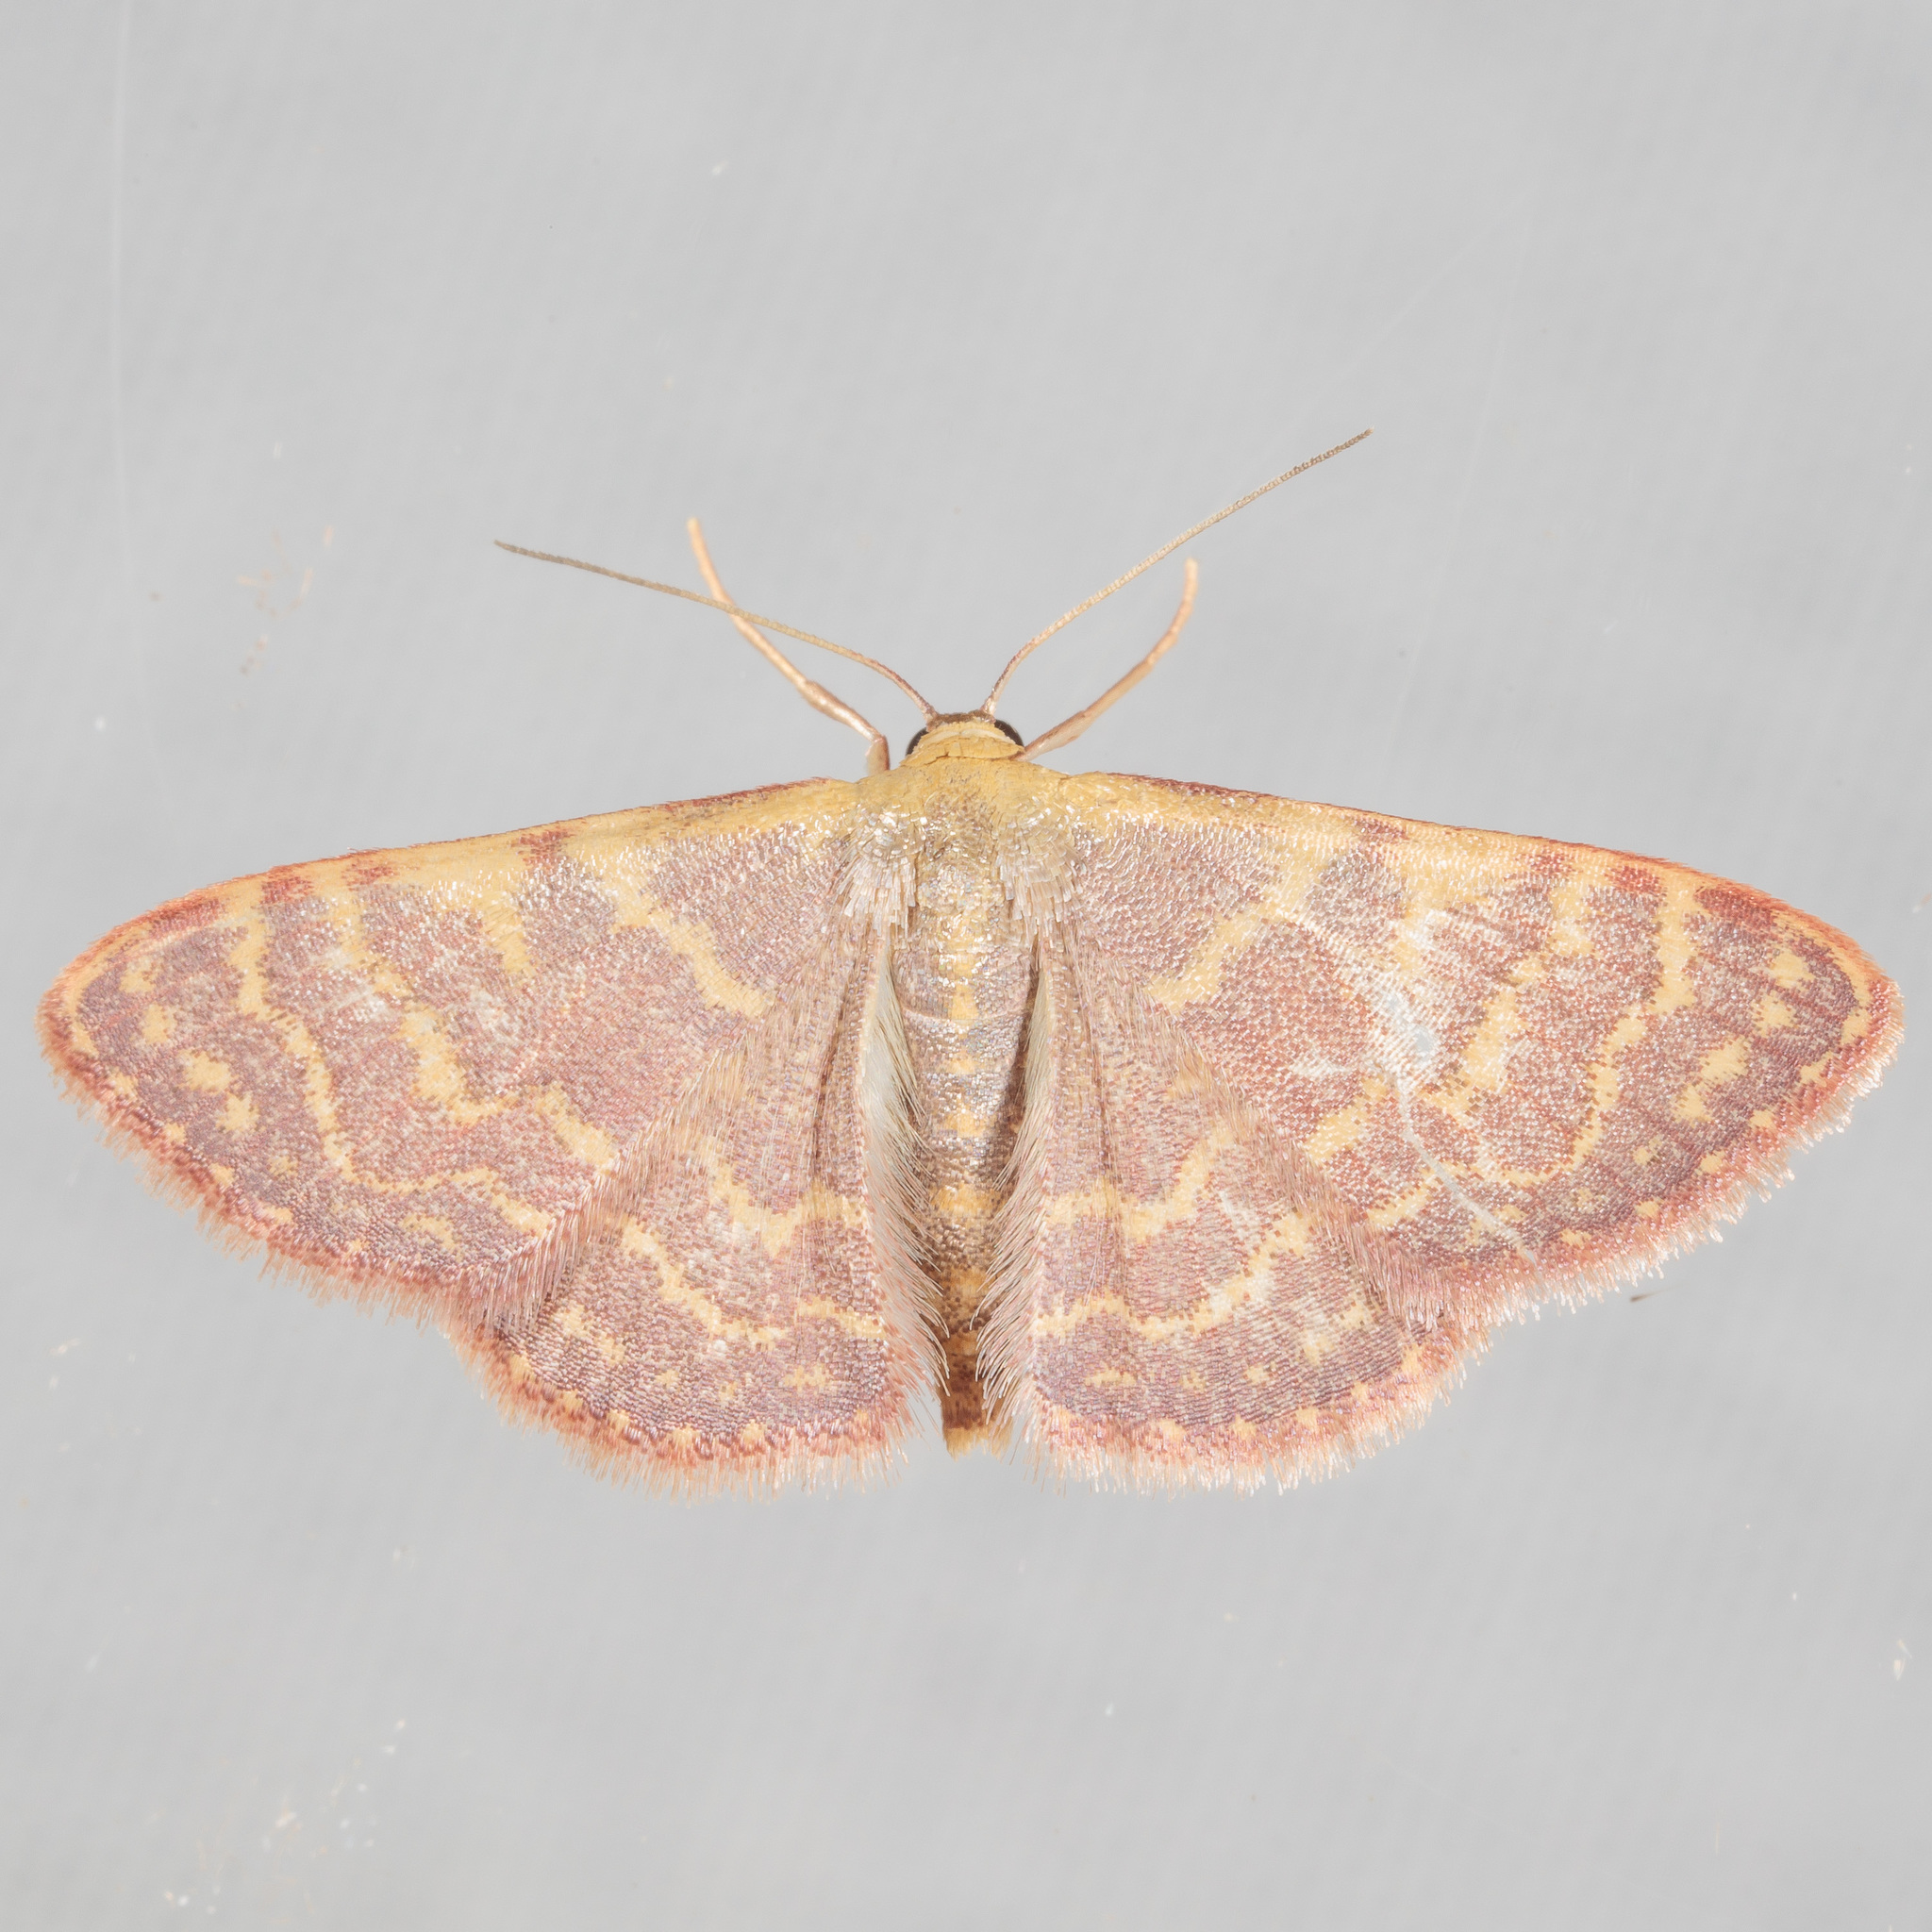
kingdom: Animalia
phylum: Arthropoda
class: Insecta
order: Lepidoptera
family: Geometridae
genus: Leptostales
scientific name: Leptostales pannaria
